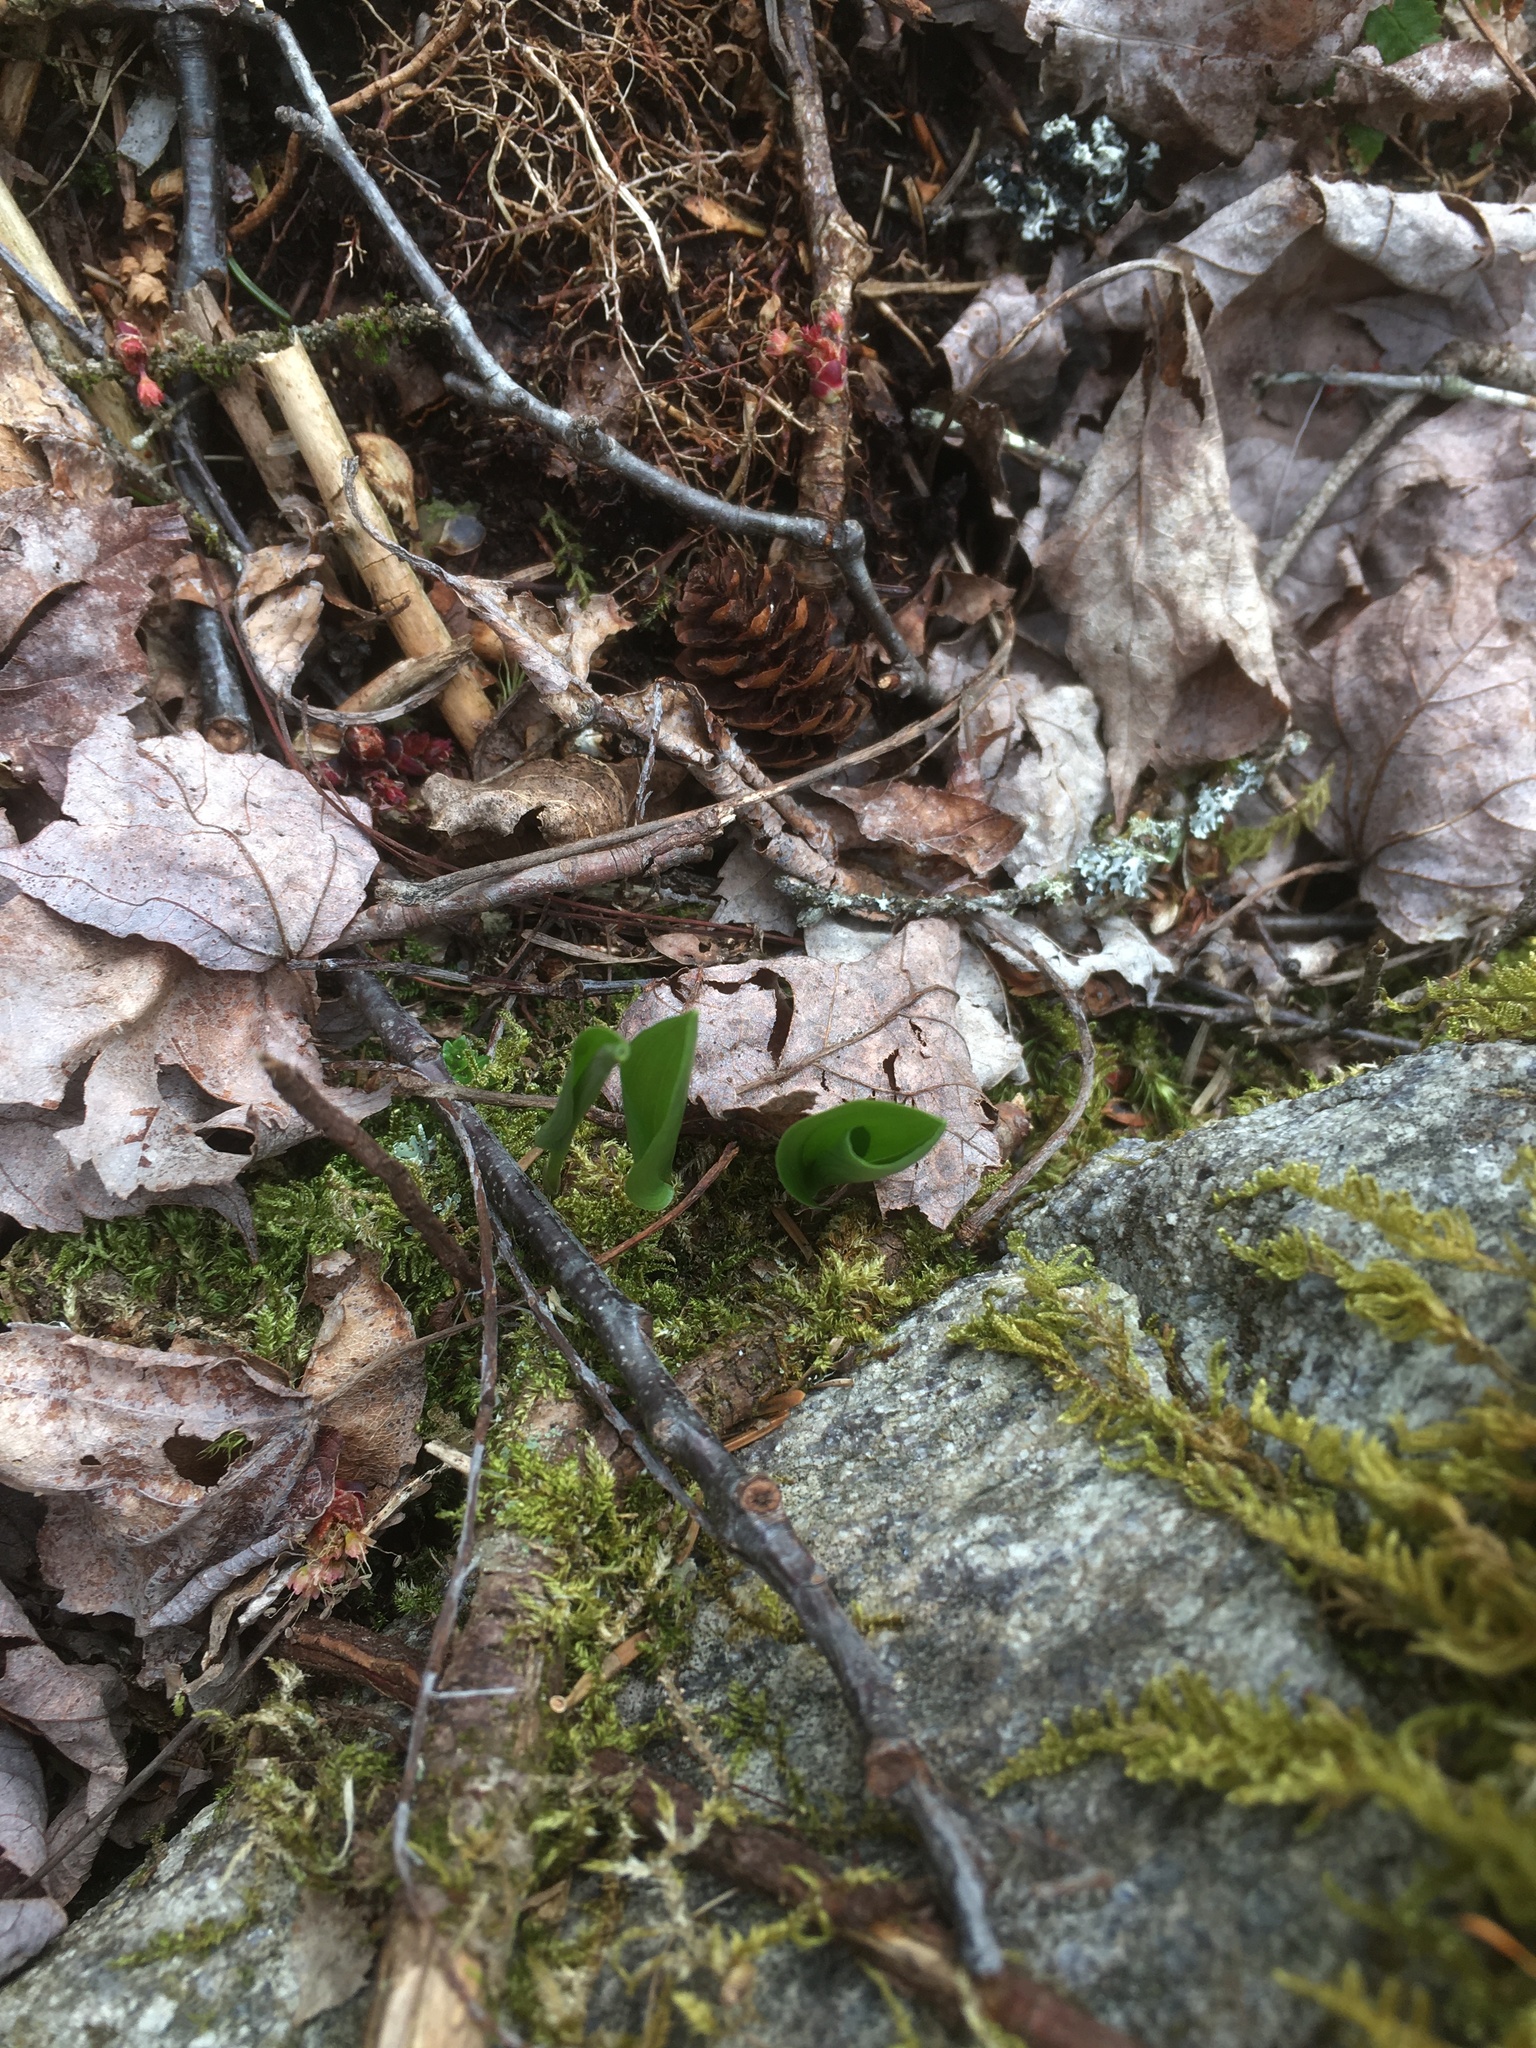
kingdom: Plantae
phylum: Tracheophyta
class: Liliopsida
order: Asparagales
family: Asparagaceae
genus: Maianthemum
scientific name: Maianthemum canadense
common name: False lily-of-the-valley
